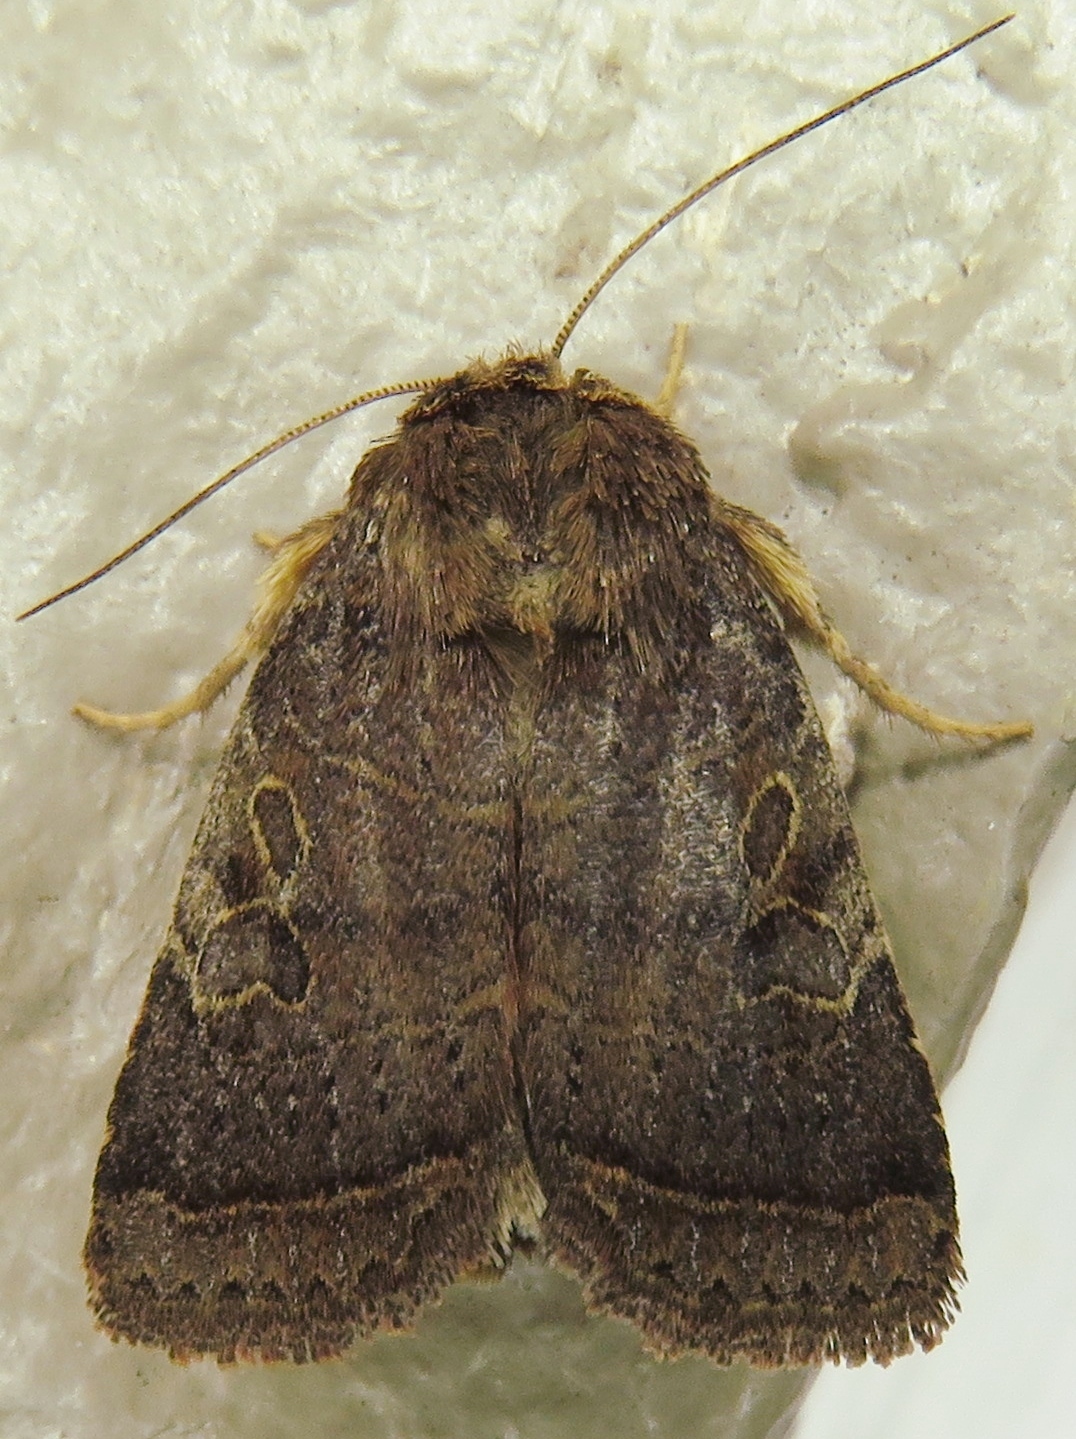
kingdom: Animalia
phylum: Arthropoda
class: Insecta
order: Lepidoptera
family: Noctuidae
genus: Orthodes
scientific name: Orthodes furtiva
